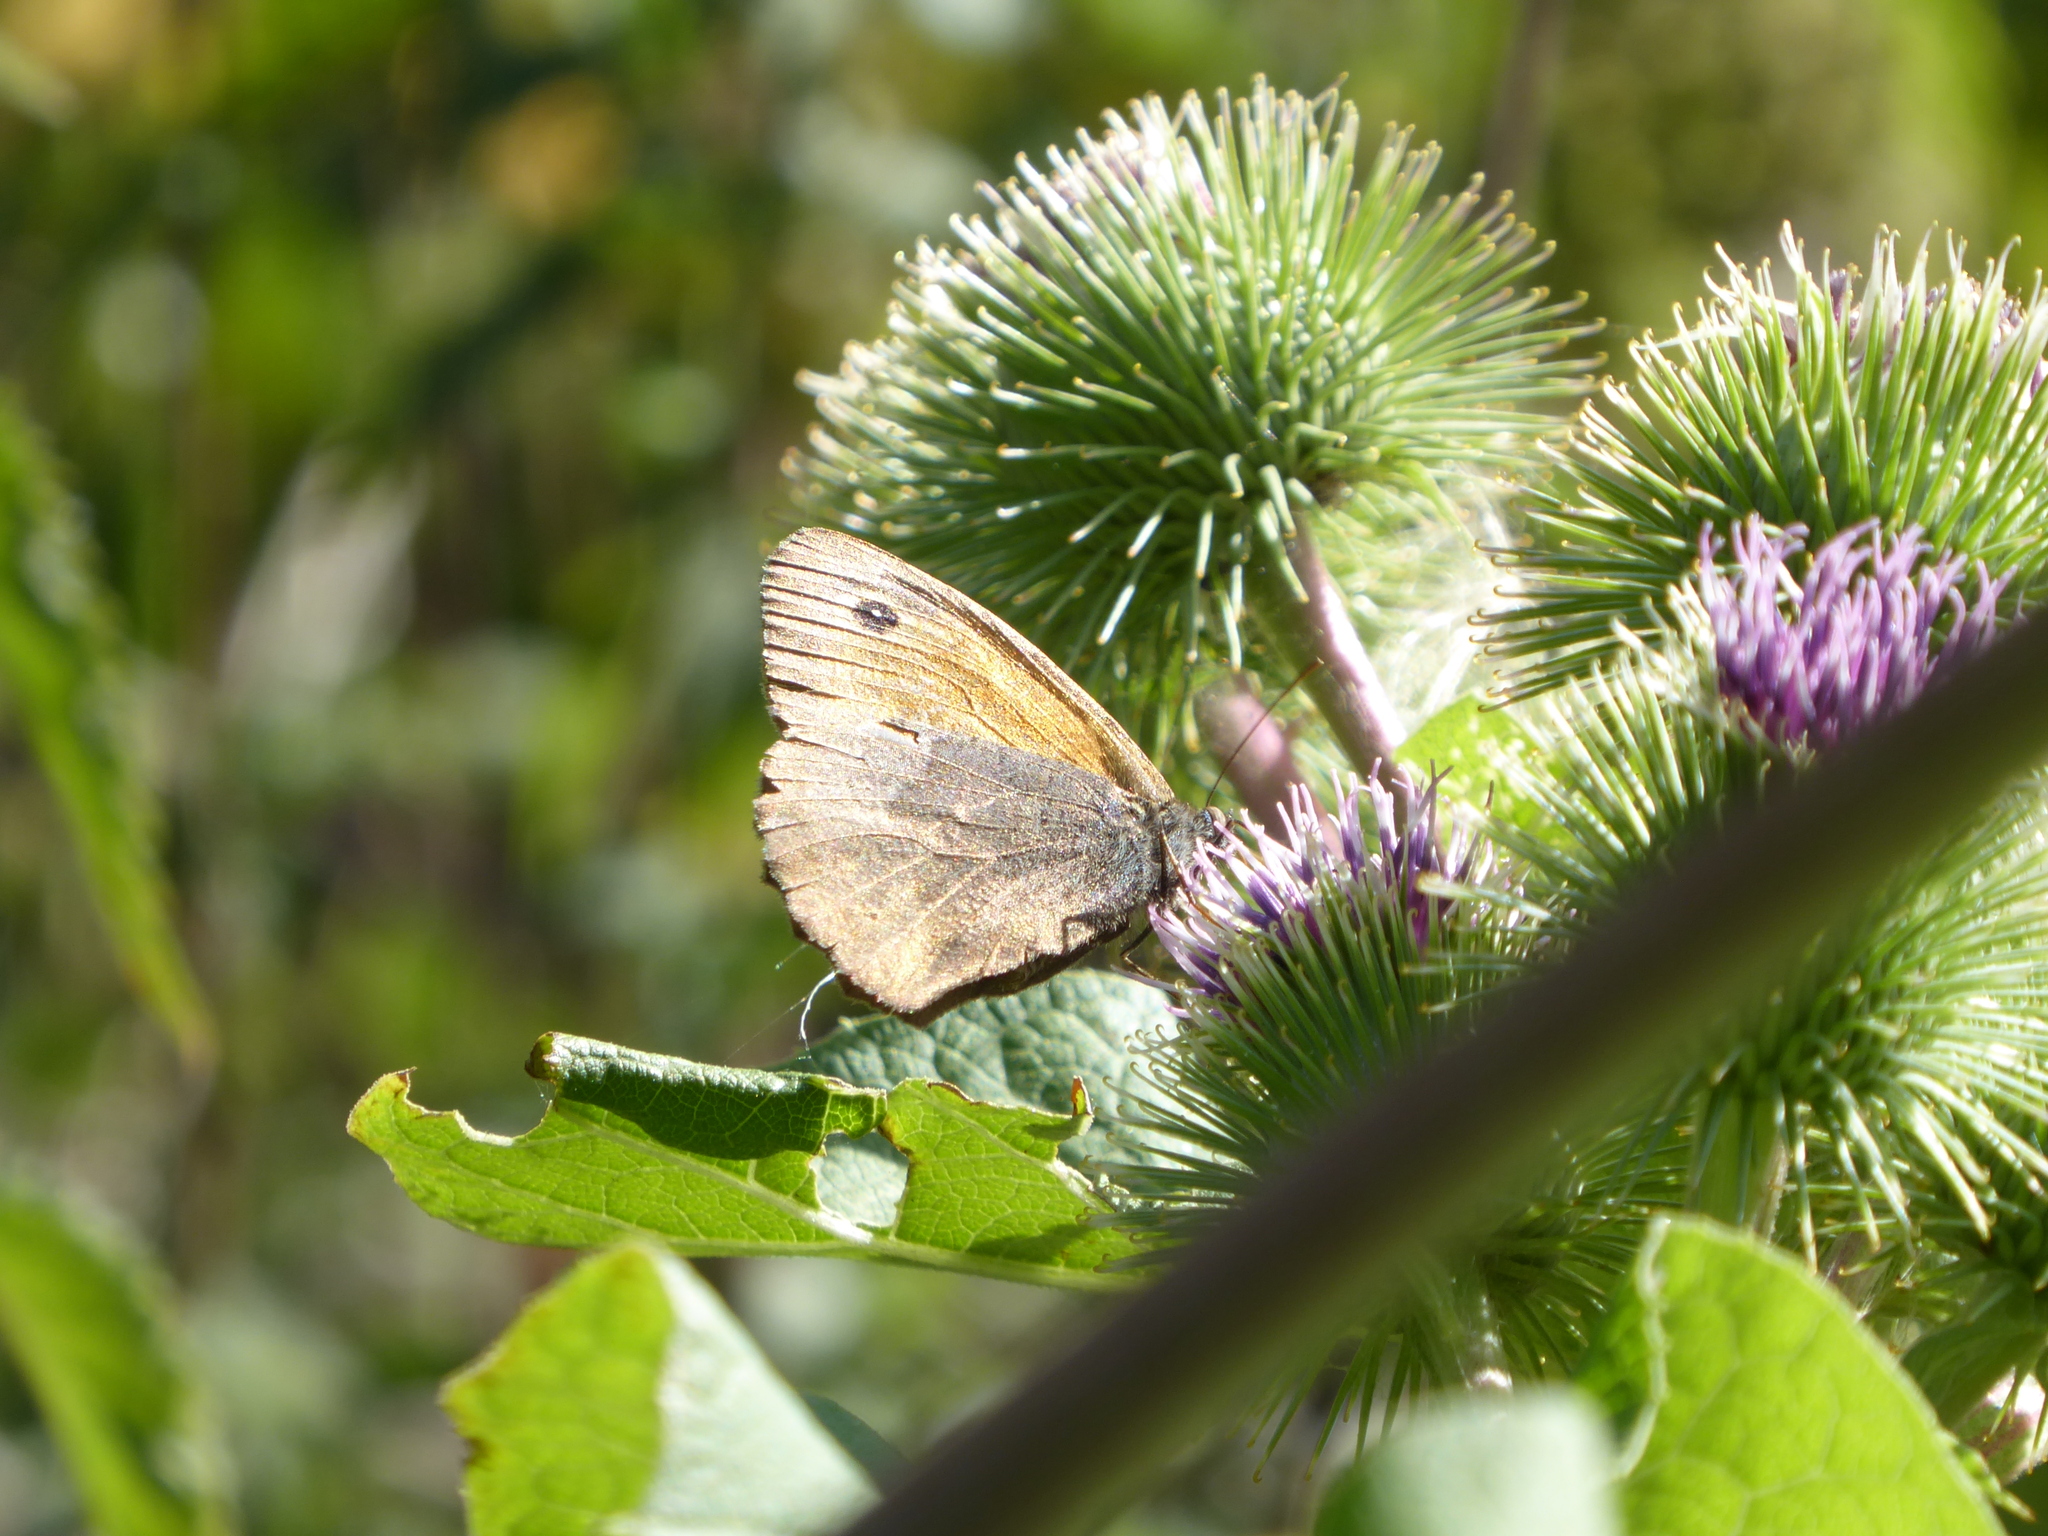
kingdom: Animalia
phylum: Arthropoda
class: Insecta
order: Lepidoptera
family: Nymphalidae
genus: Maniola
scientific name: Maniola jurtina
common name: Meadow brown
